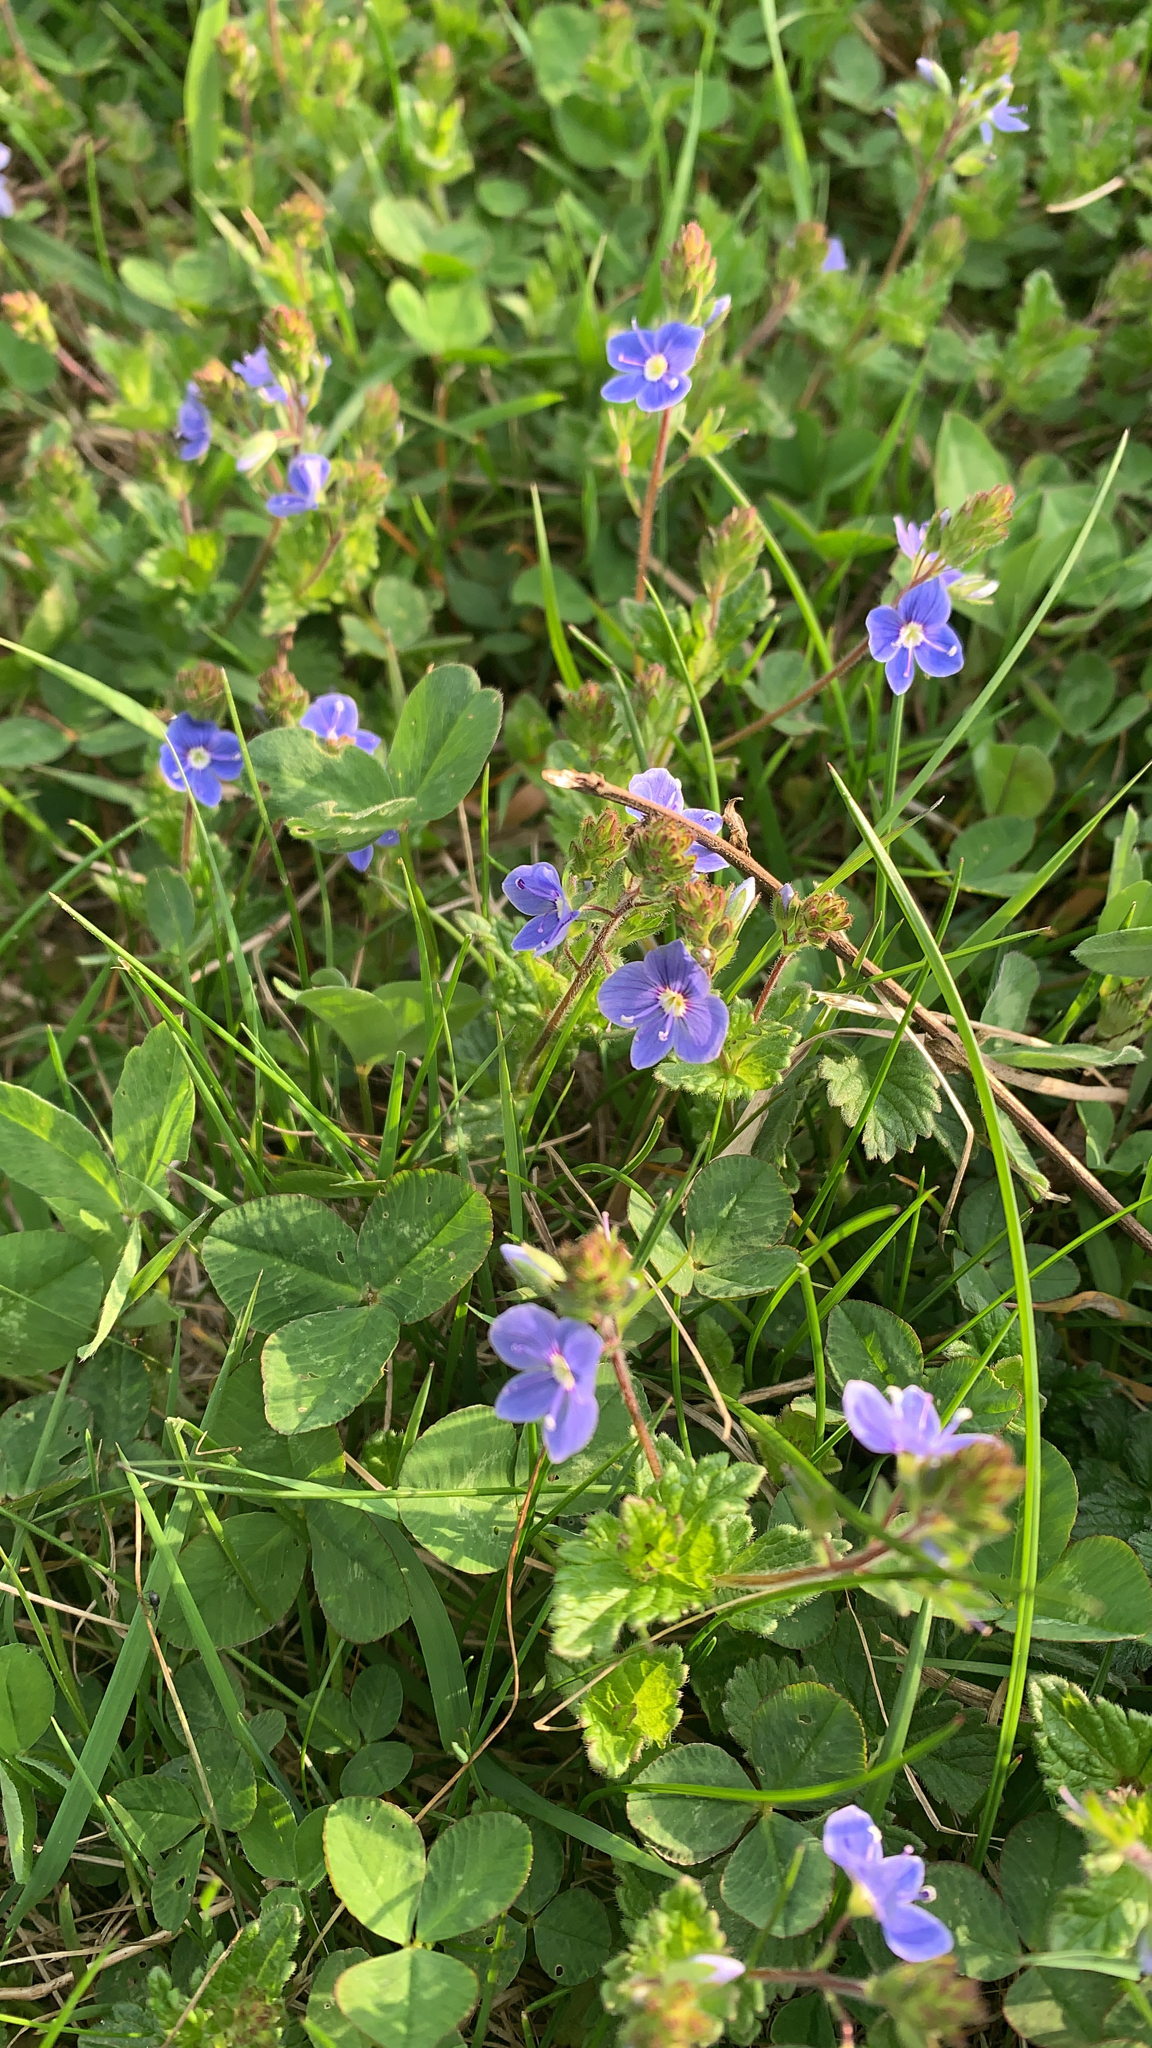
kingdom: Plantae
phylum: Tracheophyta
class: Magnoliopsida
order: Lamiales
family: Plantaginaceae
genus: Veronica
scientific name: Veronica chamaedrys
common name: Germander speedwell
